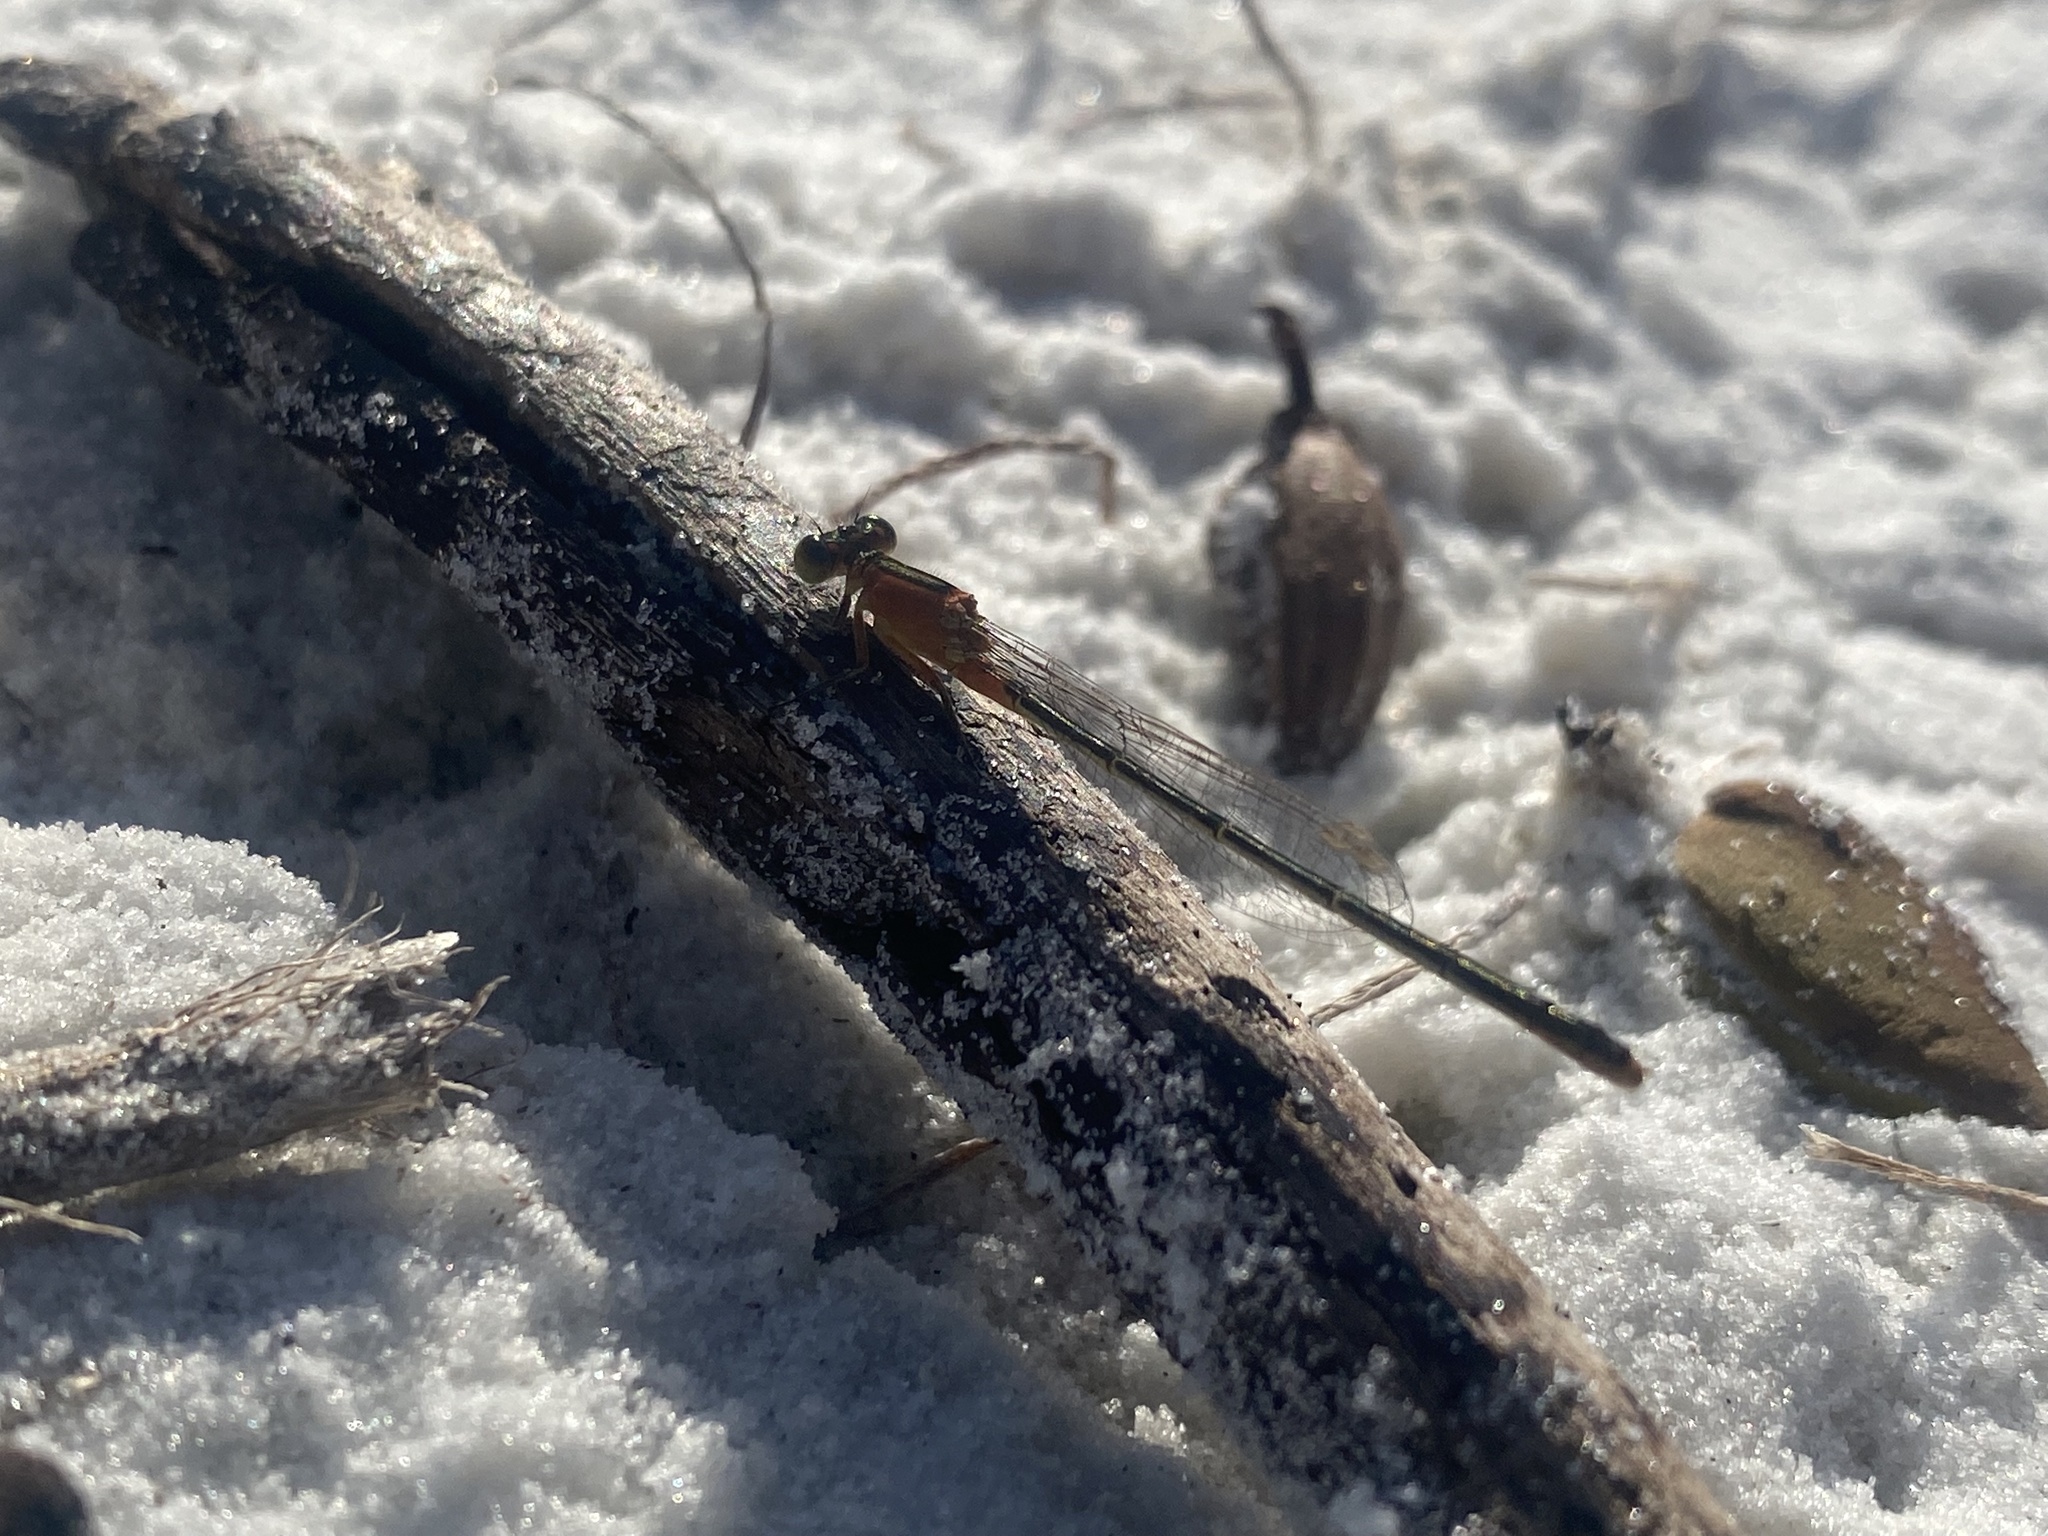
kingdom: Animalia
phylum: Arthropoda
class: Insecta
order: Odonata
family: Coenagrionidae
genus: Ischnura
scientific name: Ischnura ramburii
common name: Rambur's forktail
